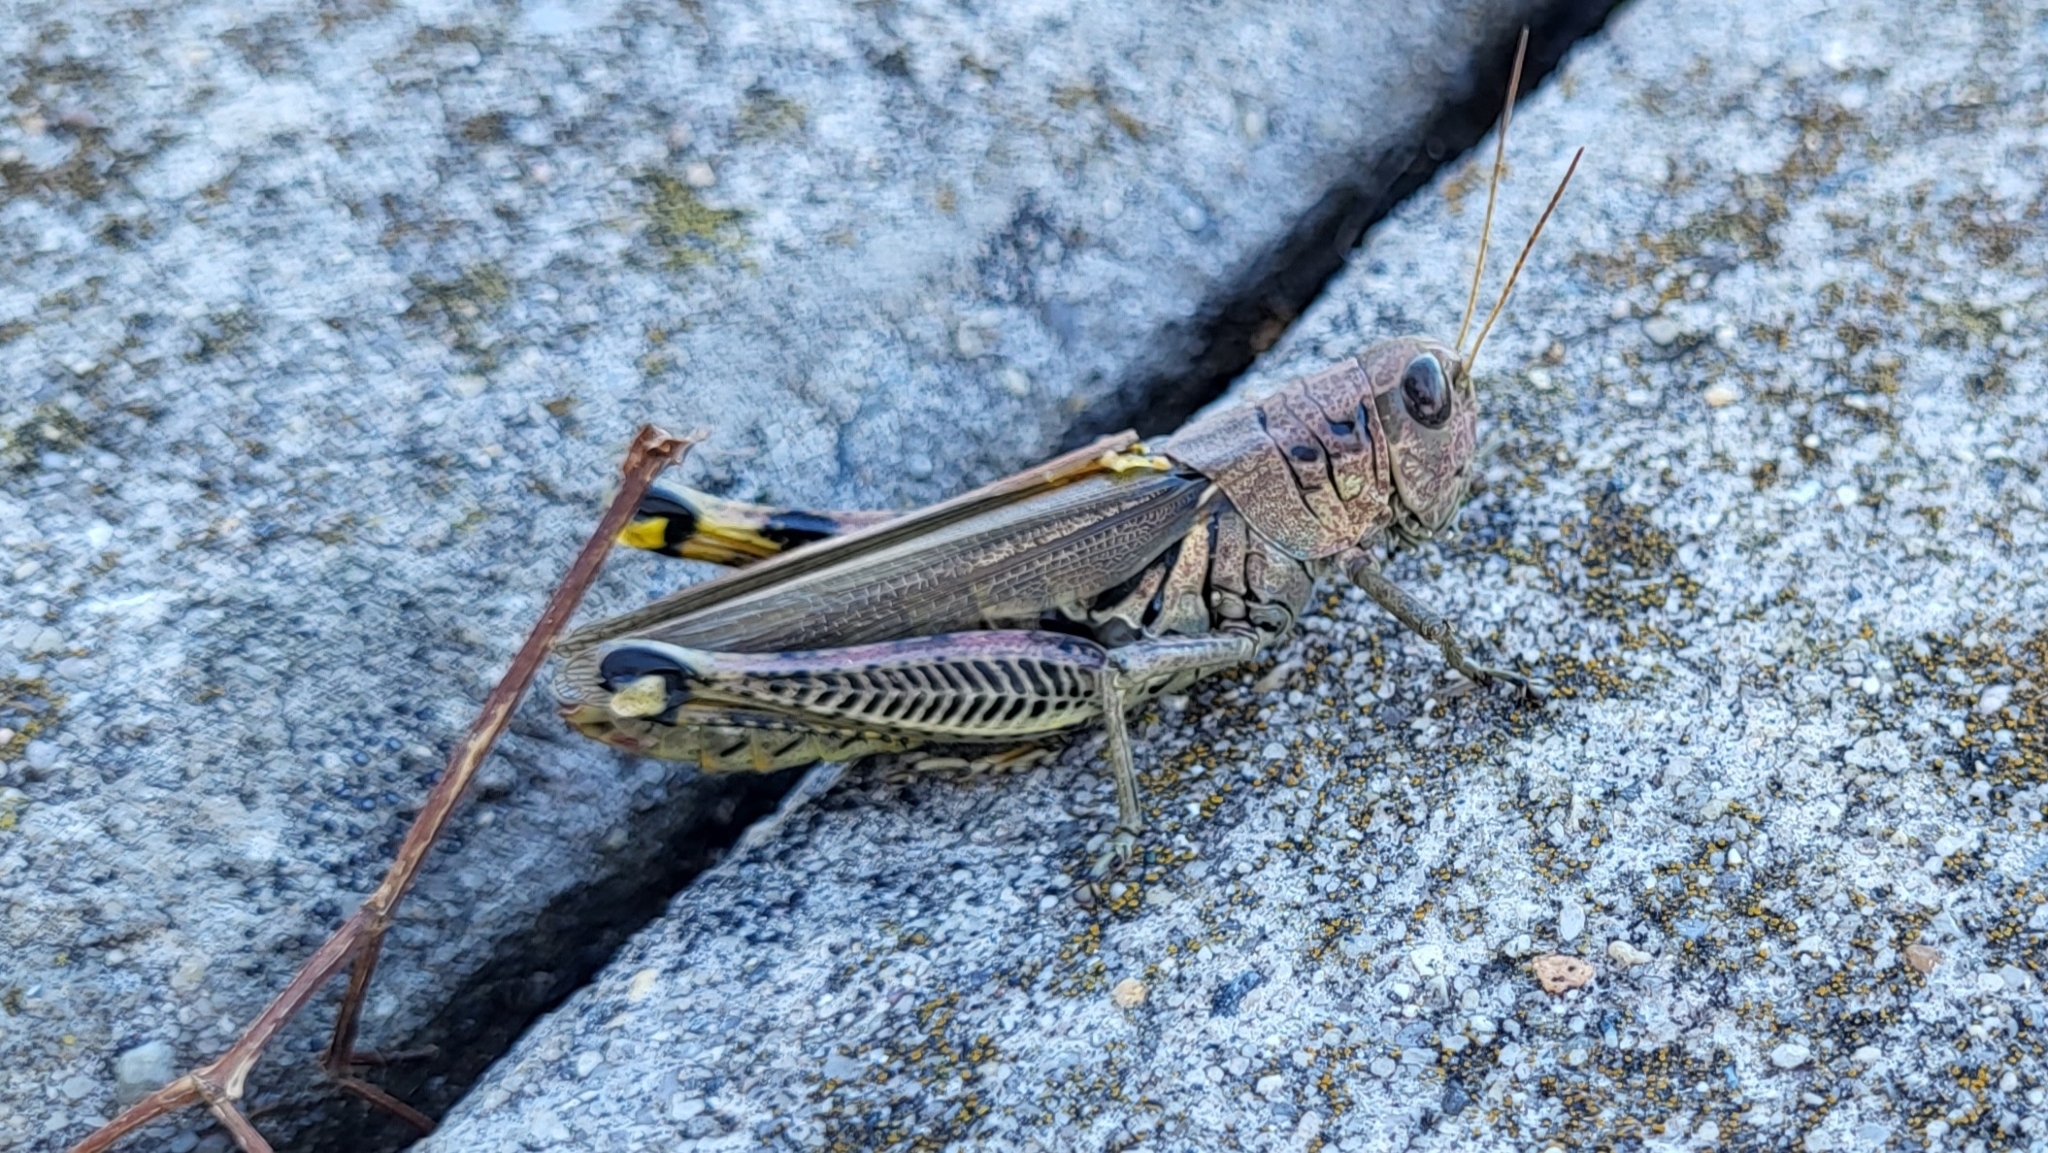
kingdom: Animalia
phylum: Arthropoda
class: Insecta
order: Orthoptera
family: Acrididae
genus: Melanoplus
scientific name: Melanoplus differentialis
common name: Differential grasshopper
